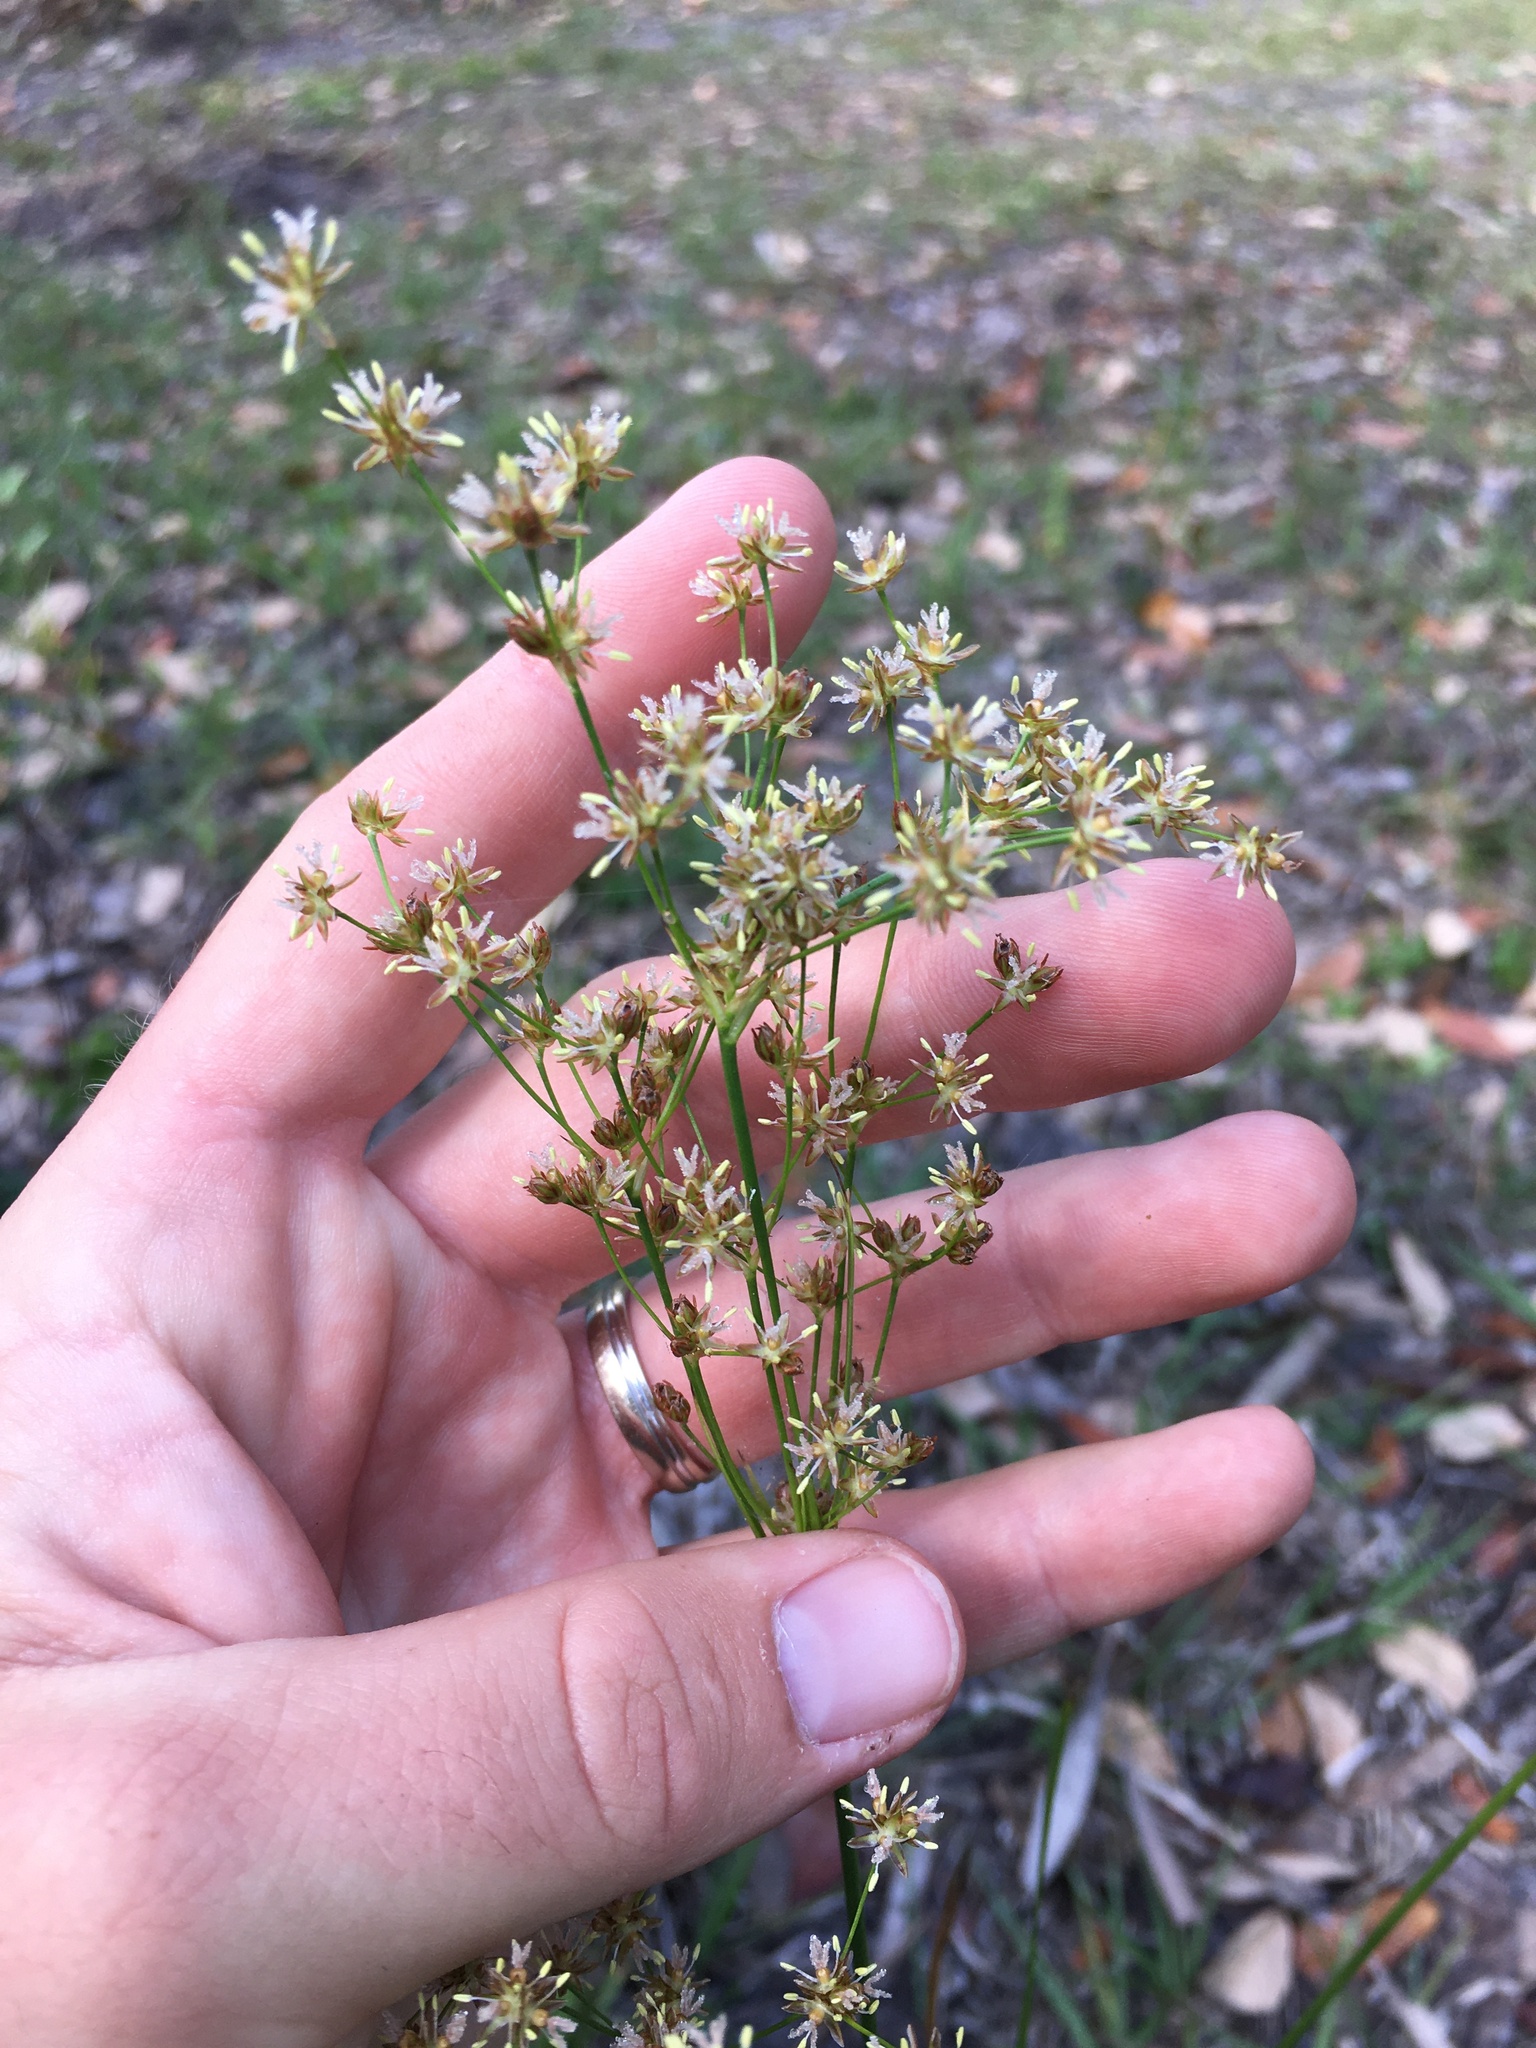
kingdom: Plantae
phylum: Tracheophyta
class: Liliopsida
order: Poales
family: Juncaceae
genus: Juncus
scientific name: Juncus biflorus
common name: Two-flowered rush
